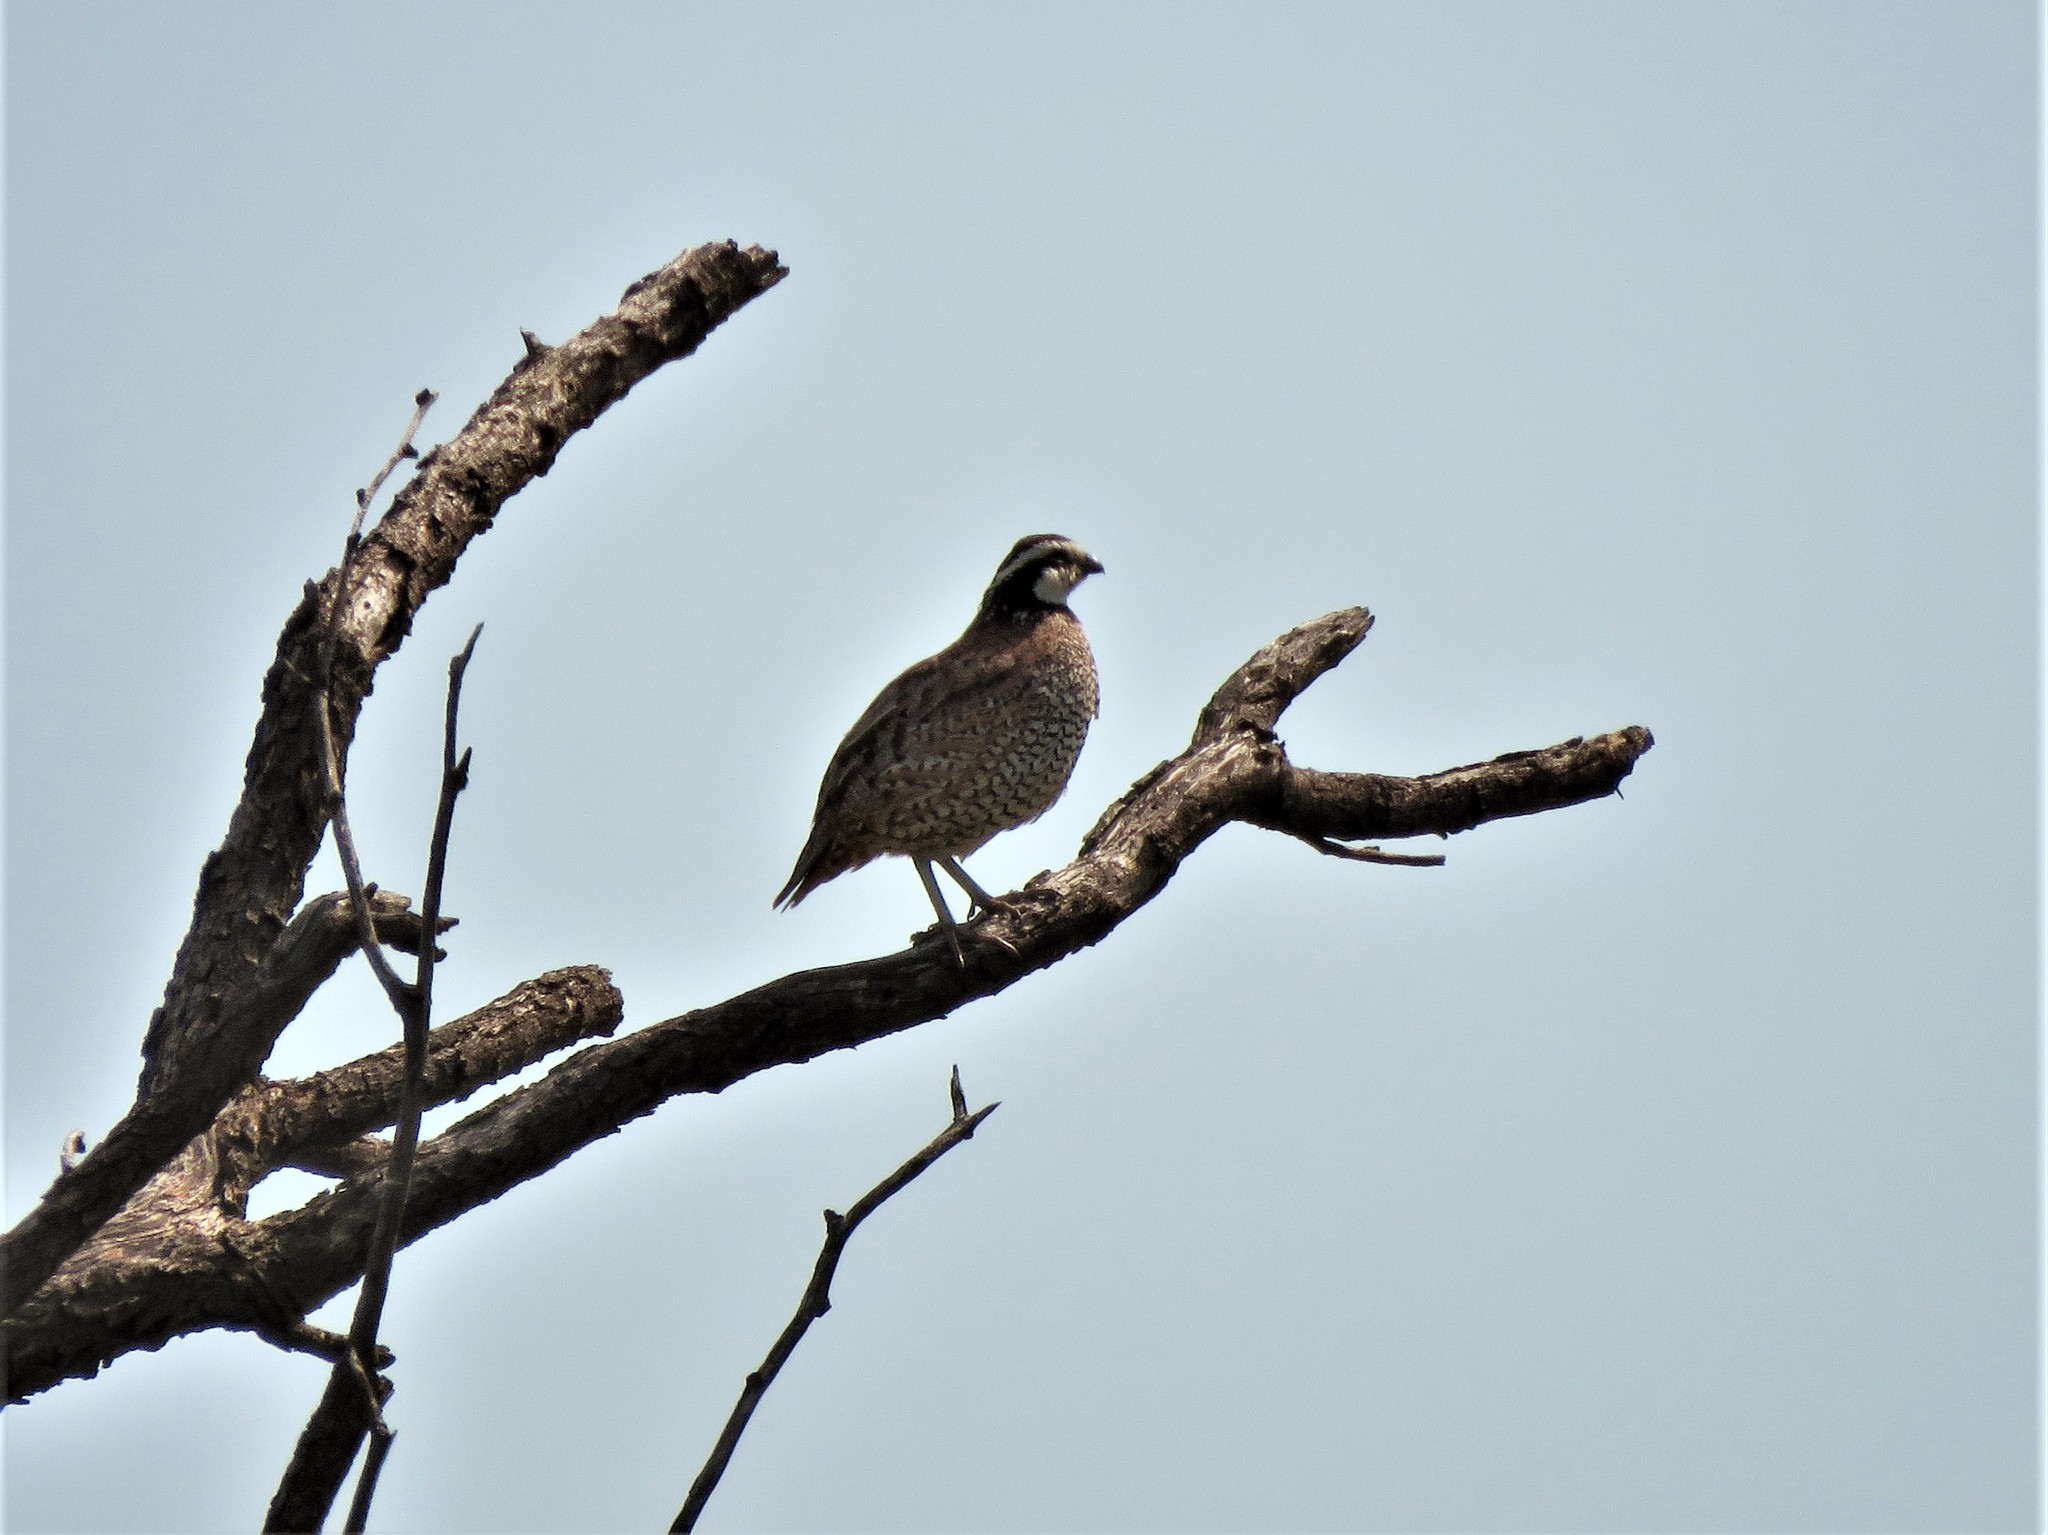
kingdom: Animalia
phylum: Chordata
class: Aves
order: Galliformes
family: Odontophoridae
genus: Colinus
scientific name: Colinus virginianus
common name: Northern bobwhite
